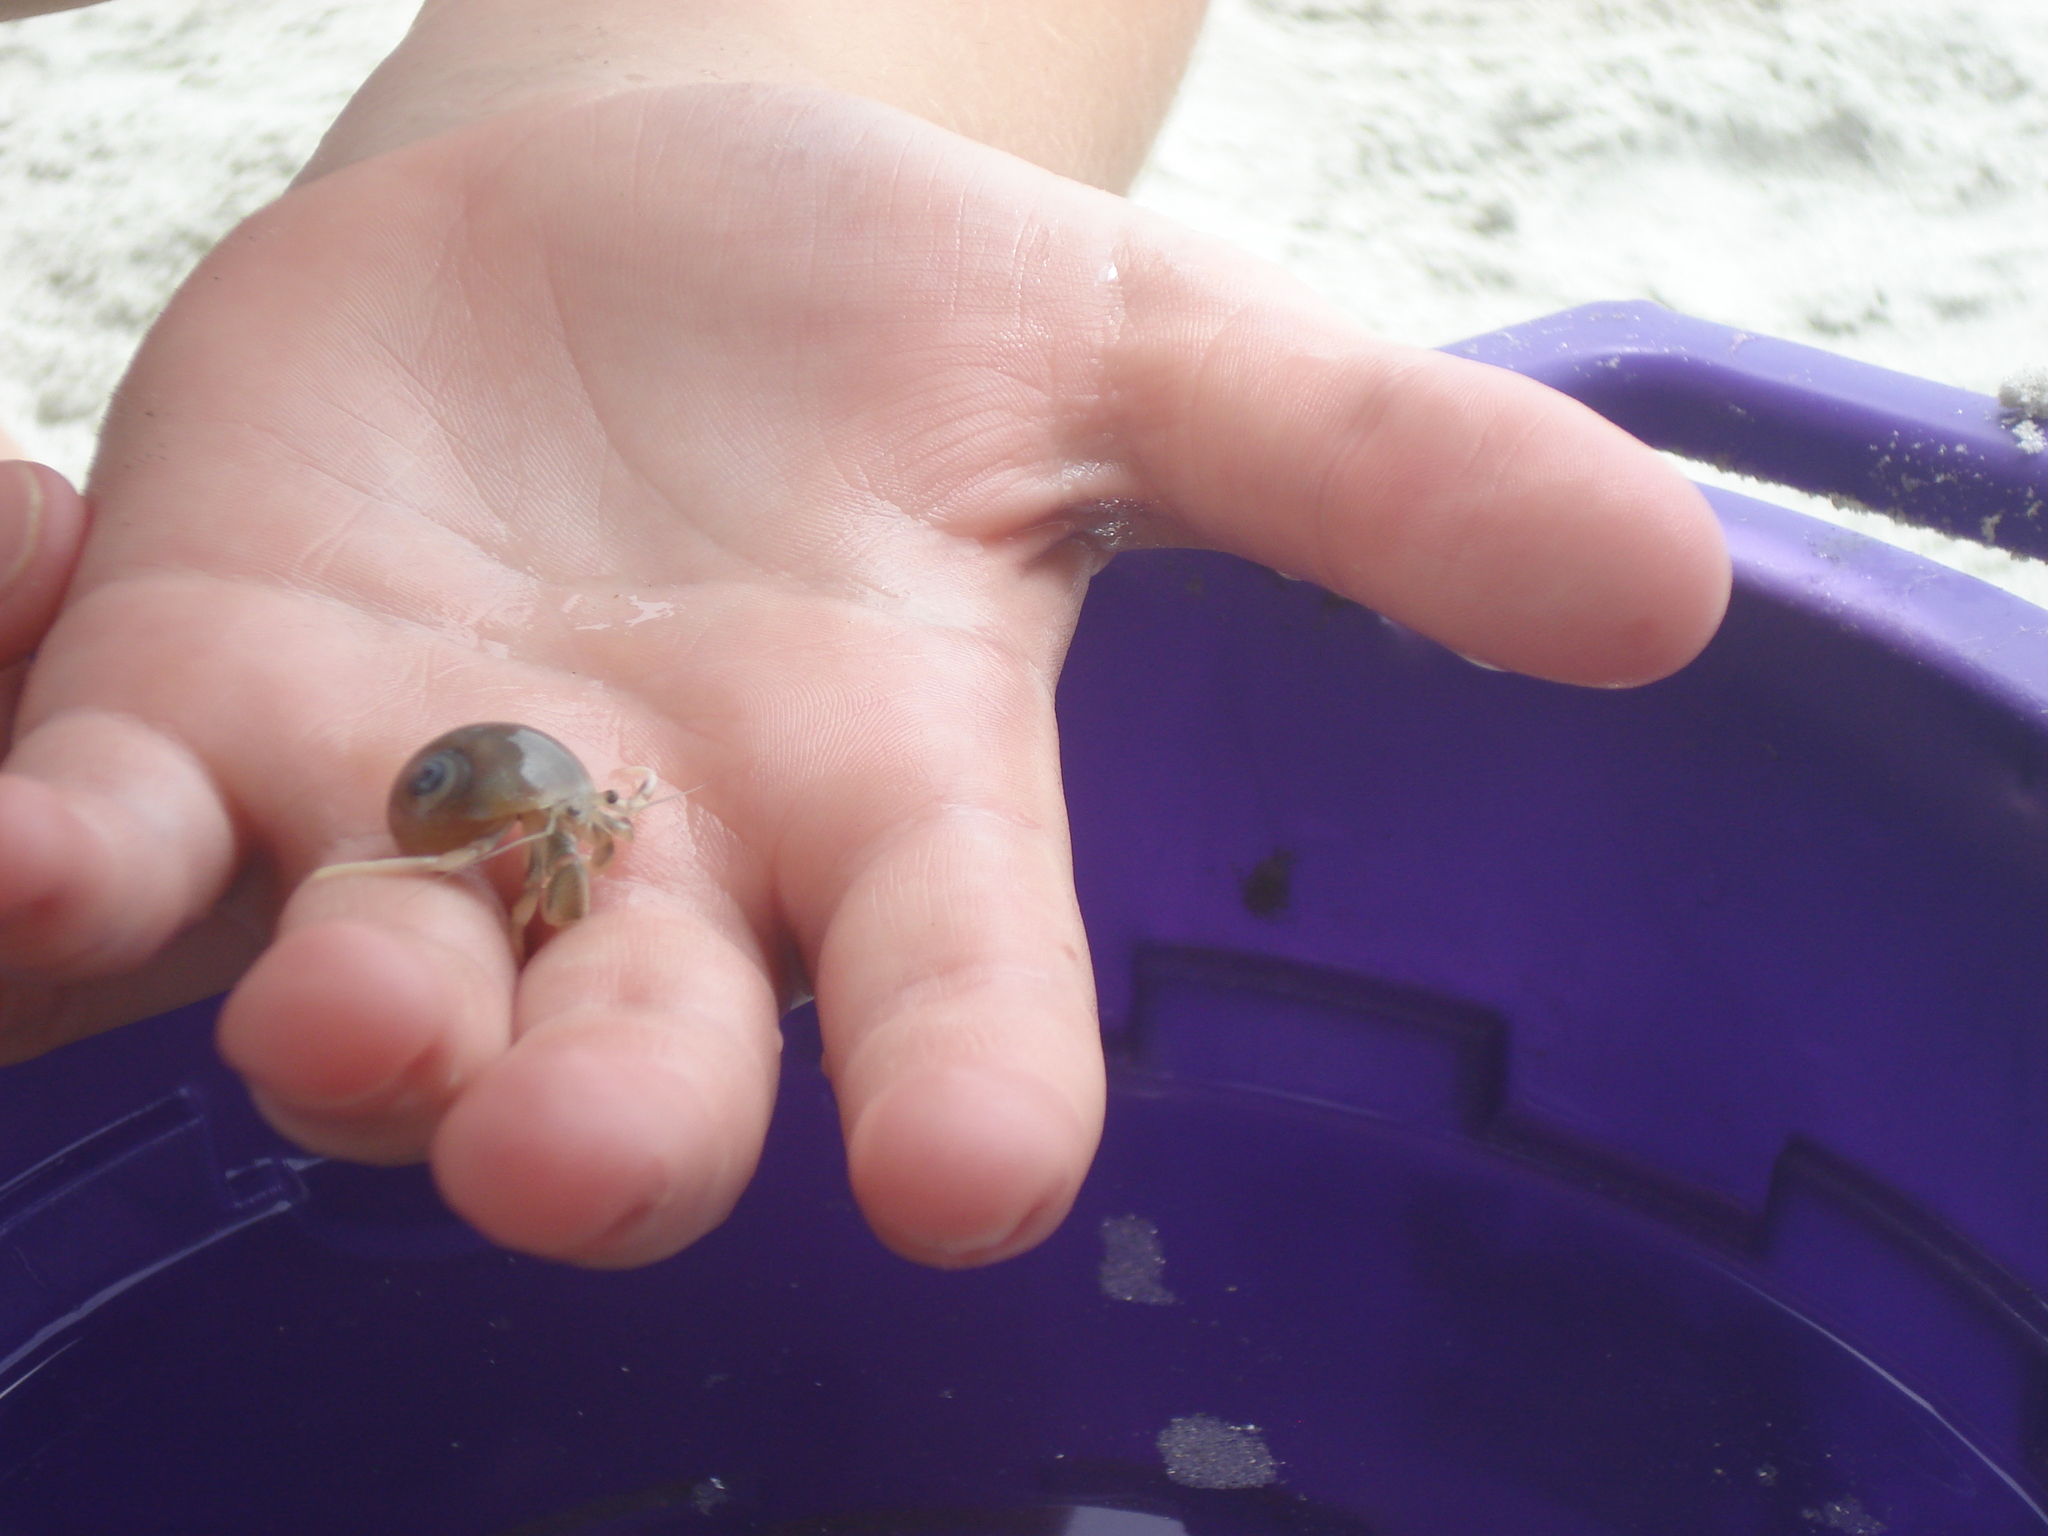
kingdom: Animalia
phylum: Arthropoda
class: Malacostraca
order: Decapoda
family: Paguridae
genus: Pagurus
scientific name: Pagurus longicarpus
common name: Long-armed hermit crab
